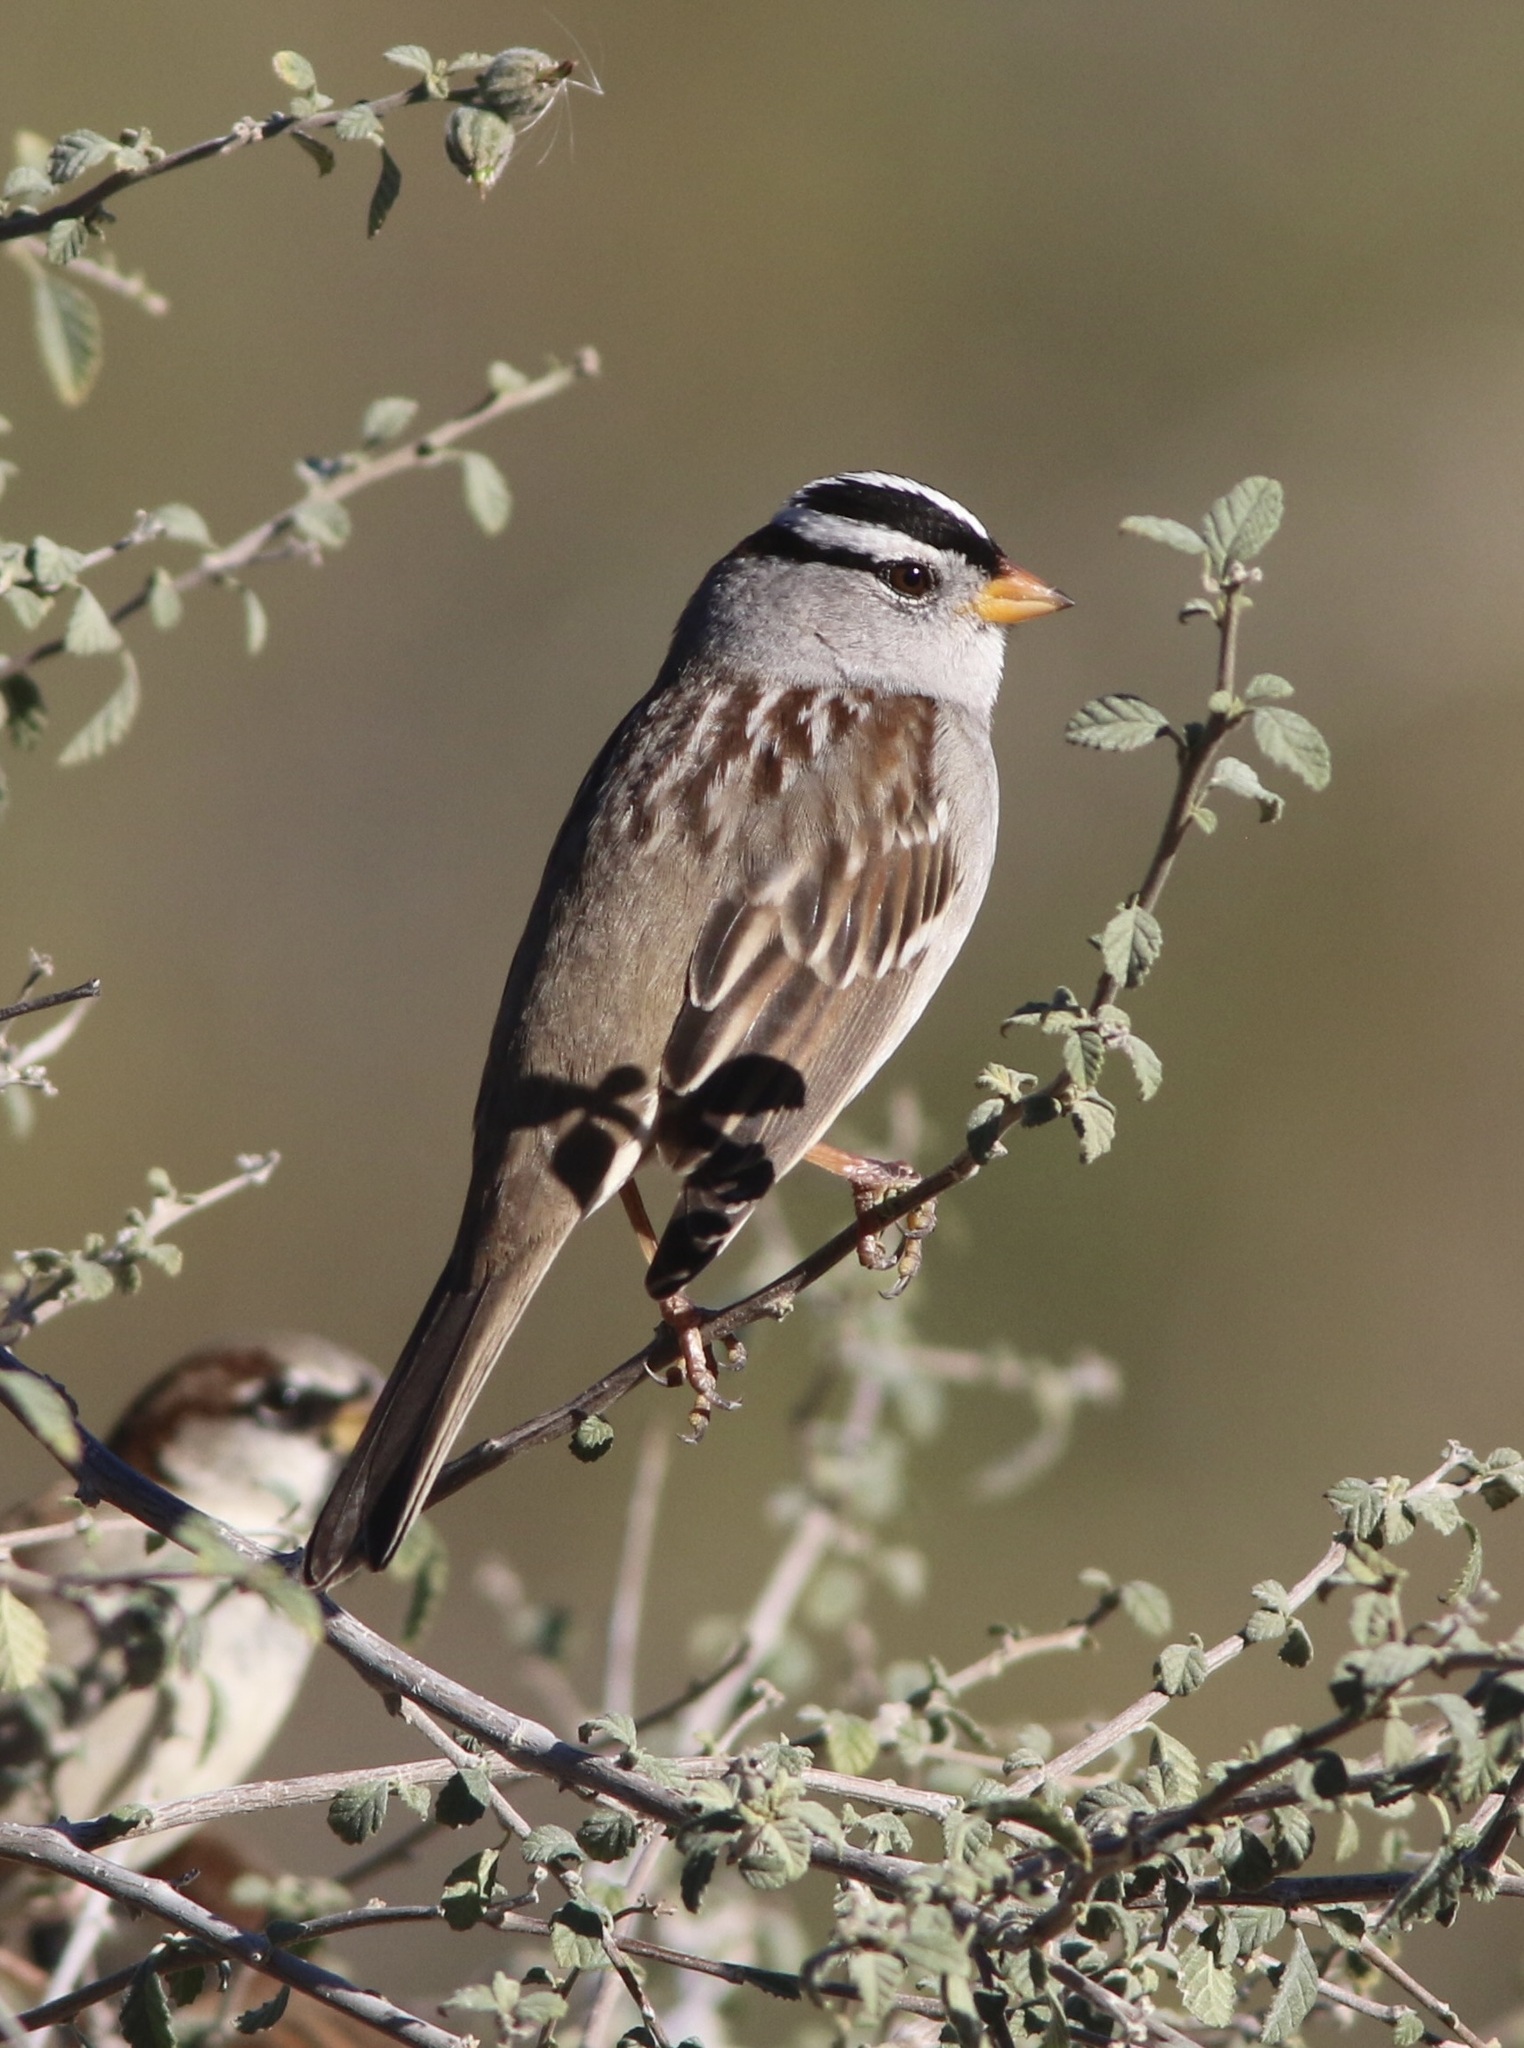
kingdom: Animalia
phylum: Chordata
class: Aves
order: Passeriformes
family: Passerellidae
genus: Zonotrichia
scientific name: Zonotrichia leucophrys
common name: White-crowned sparrow
